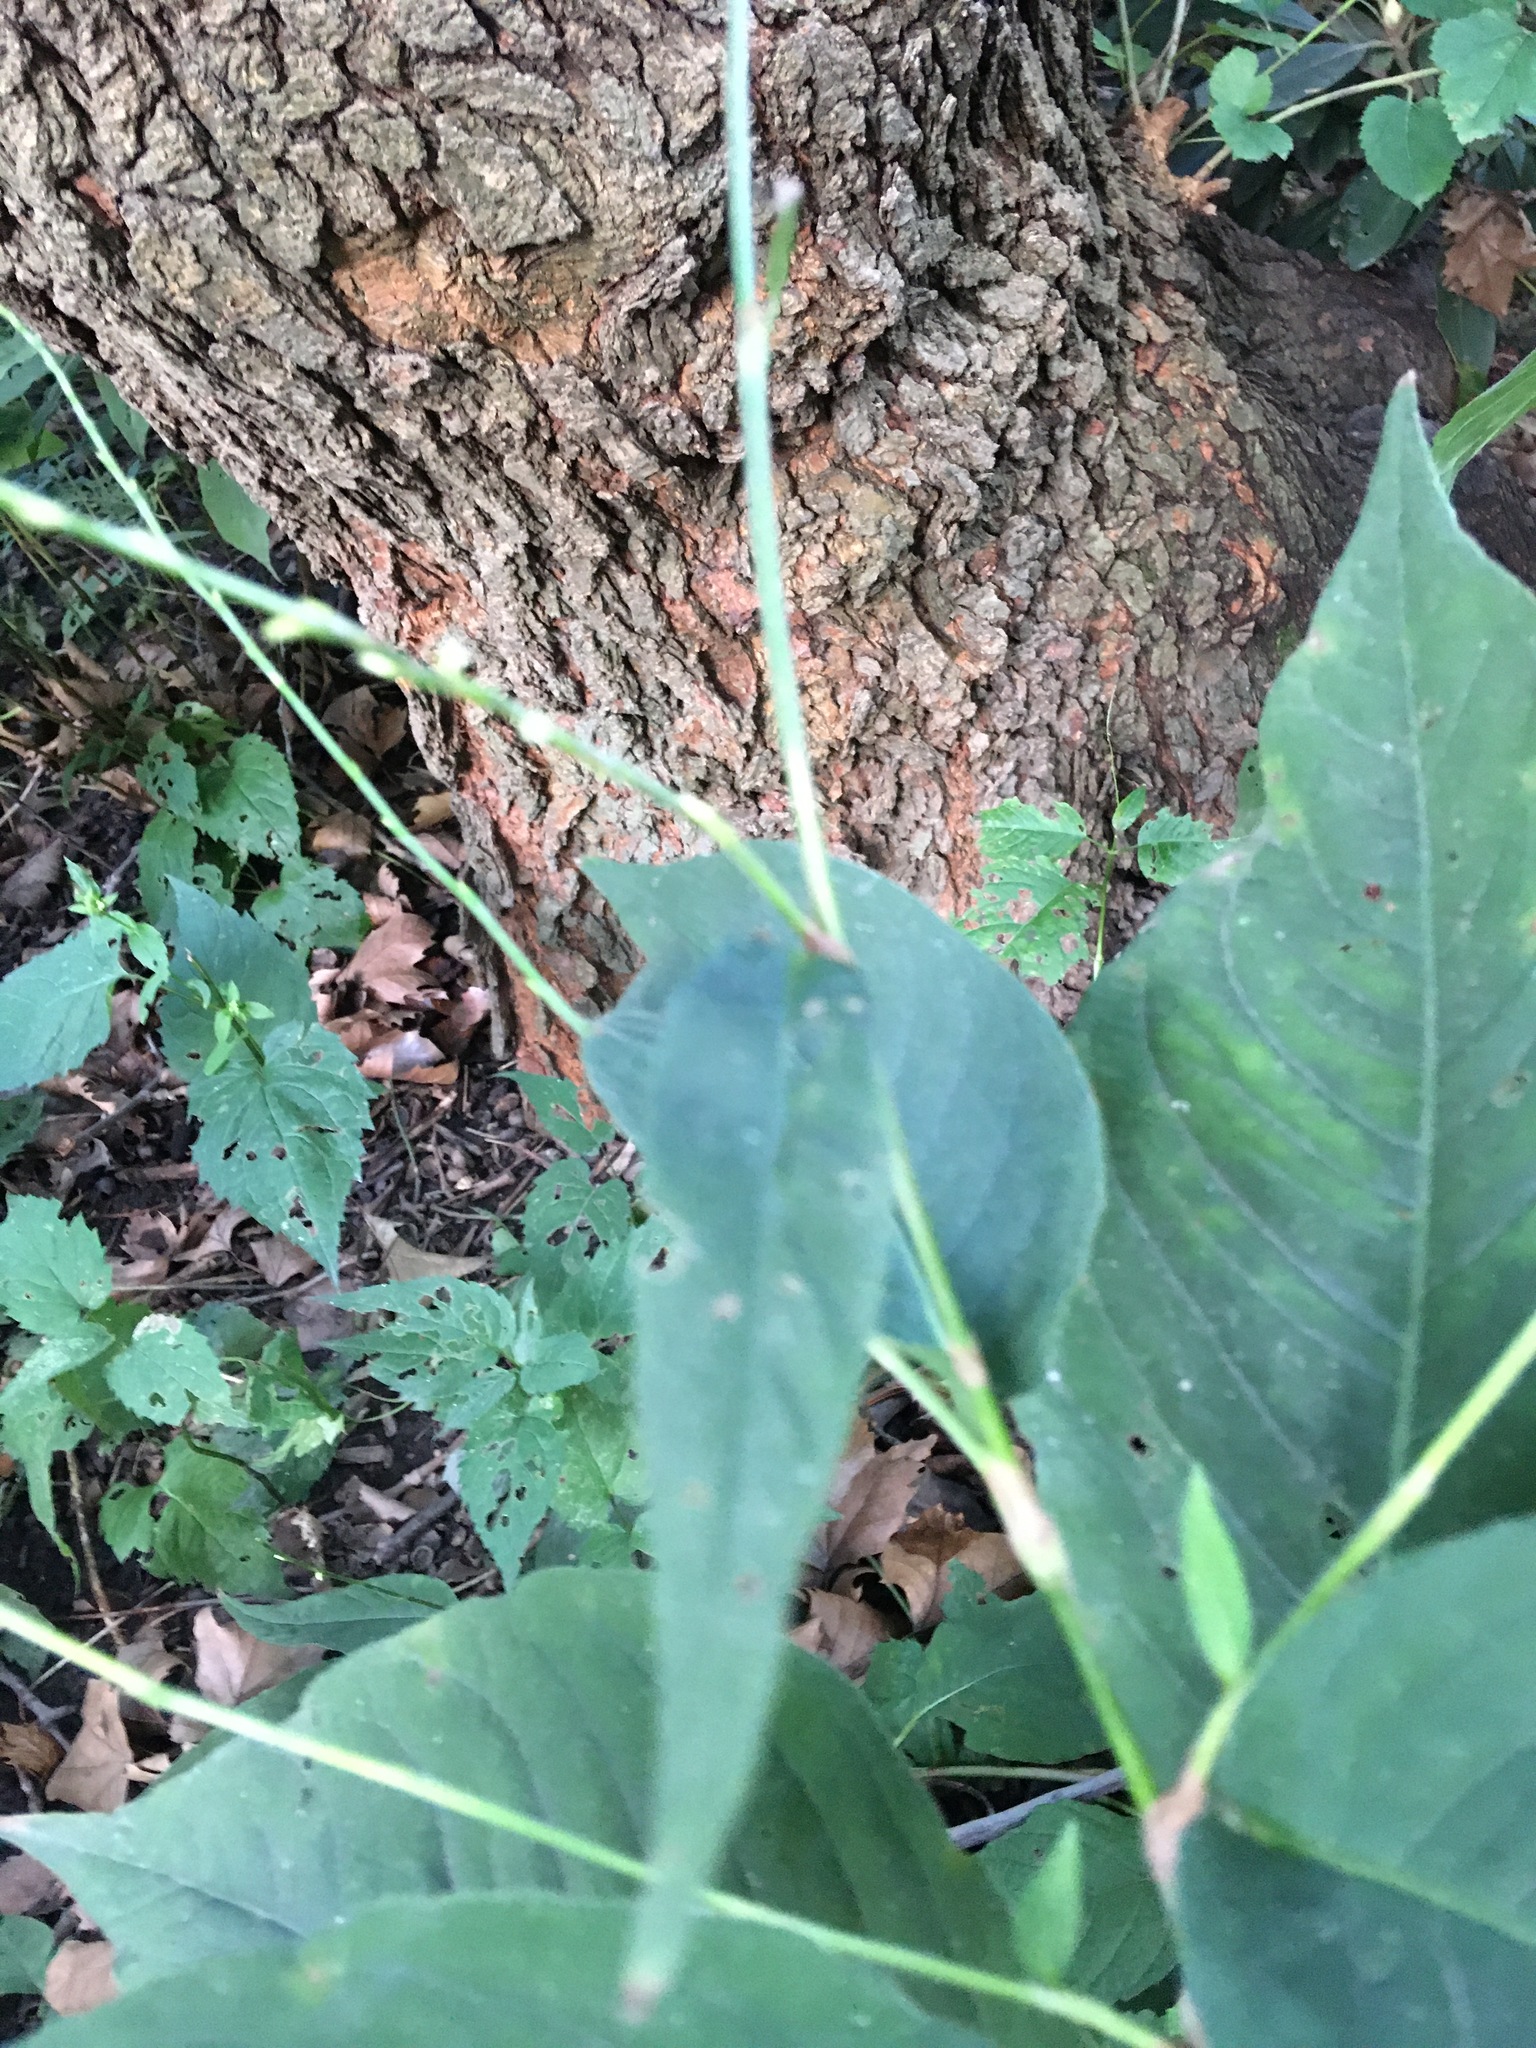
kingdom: Plantae
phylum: Tracheophyta
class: Magnoliopsida
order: Caryophyllales
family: Polygonaceae
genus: Persicaria
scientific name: Persicaria virginiana
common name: Jumpseed
